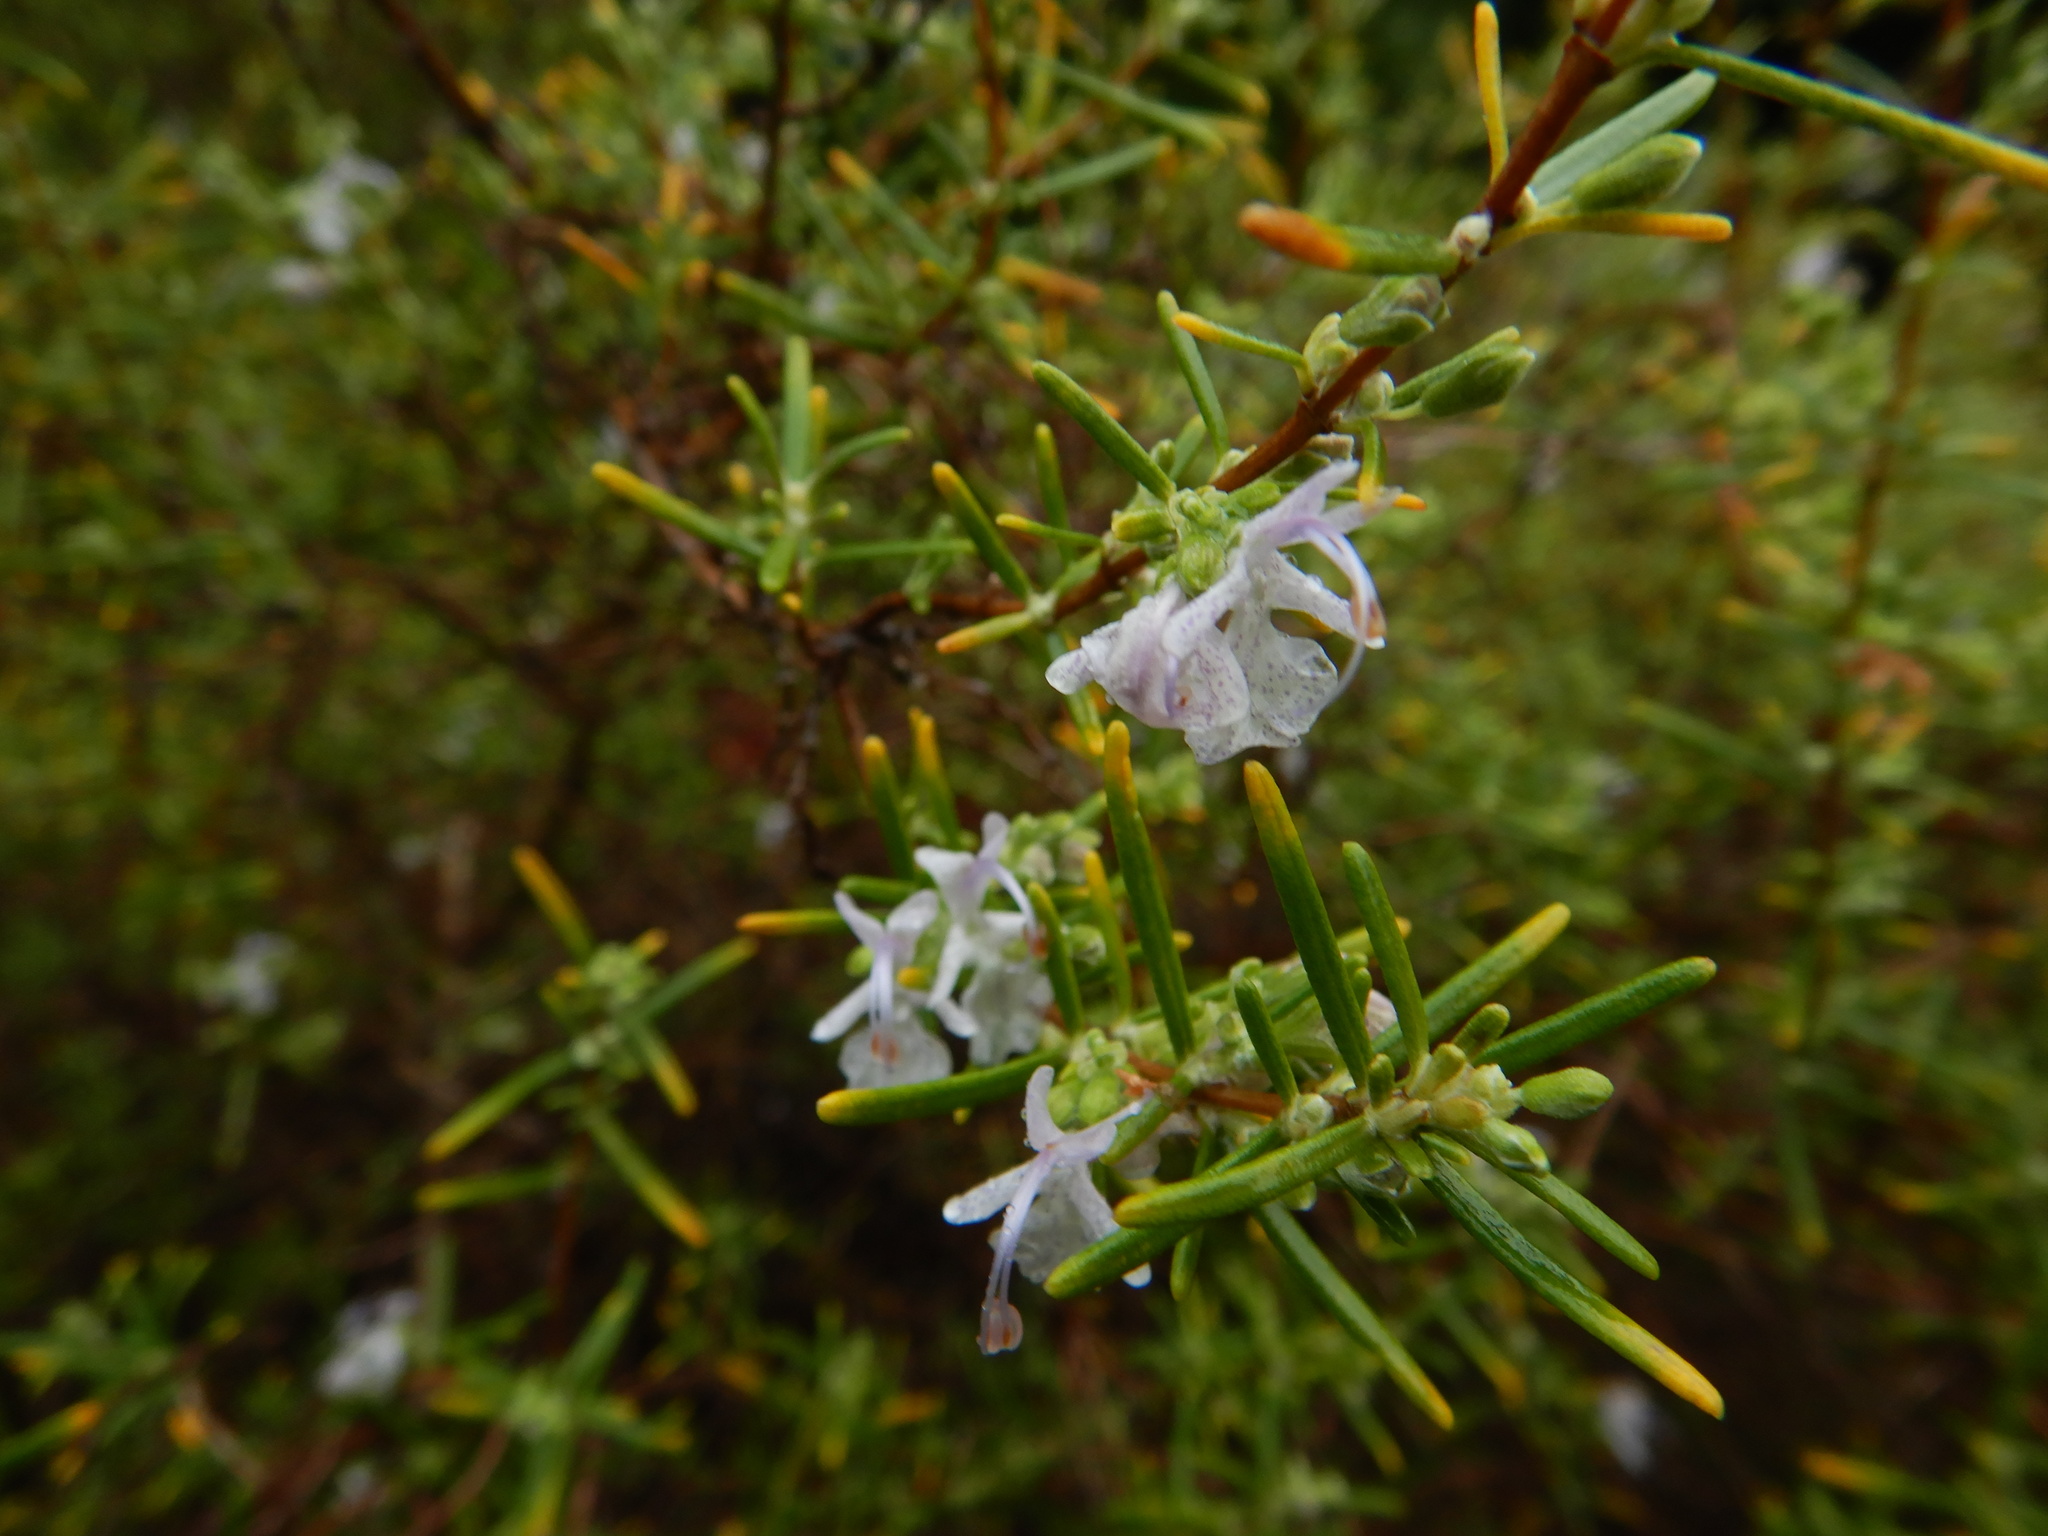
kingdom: Plantae
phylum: Tracheophyta
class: Magnoliopsida
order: Lamiales
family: Lamiaceae
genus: Salvia
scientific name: Salvia rosmarinus
